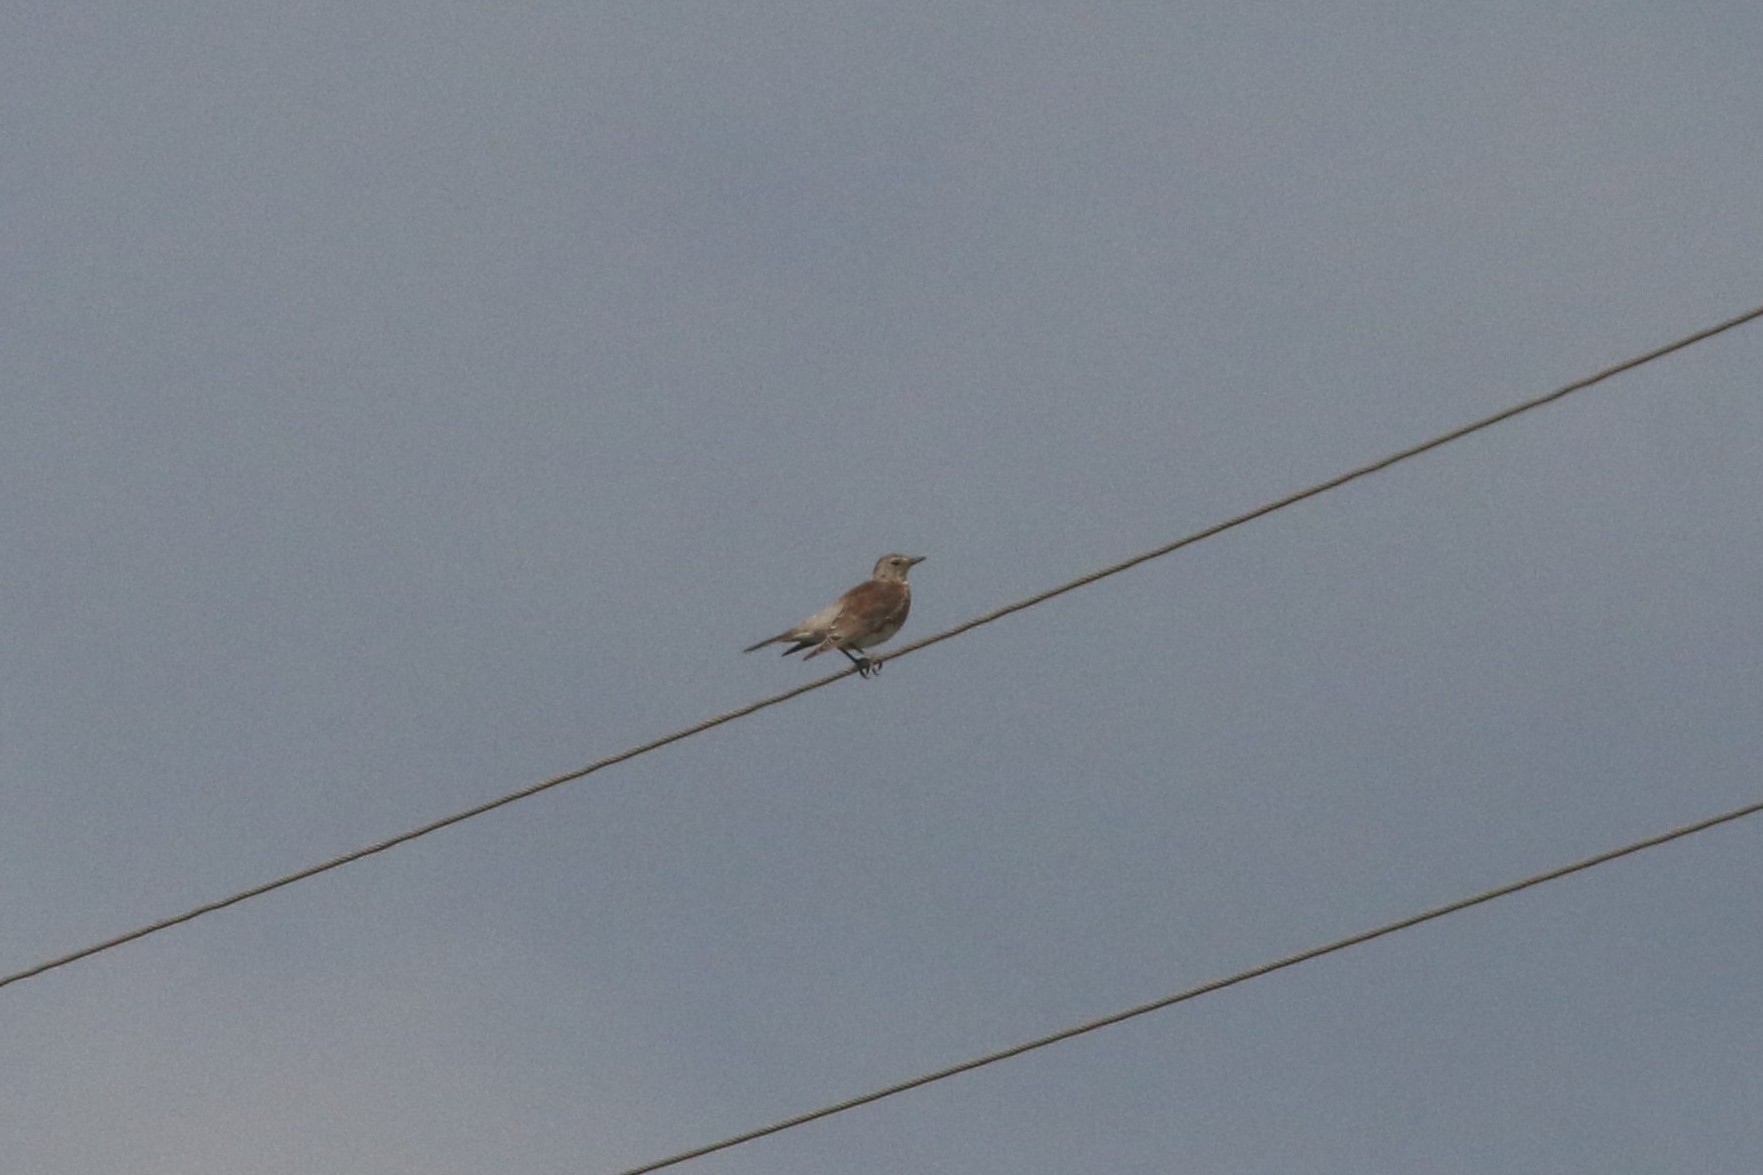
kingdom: Animalia
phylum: Chordata
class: Aves
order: Passeriformes
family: Turdidae
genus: Turdus
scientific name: Turdus pilaris
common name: Fieldfare
